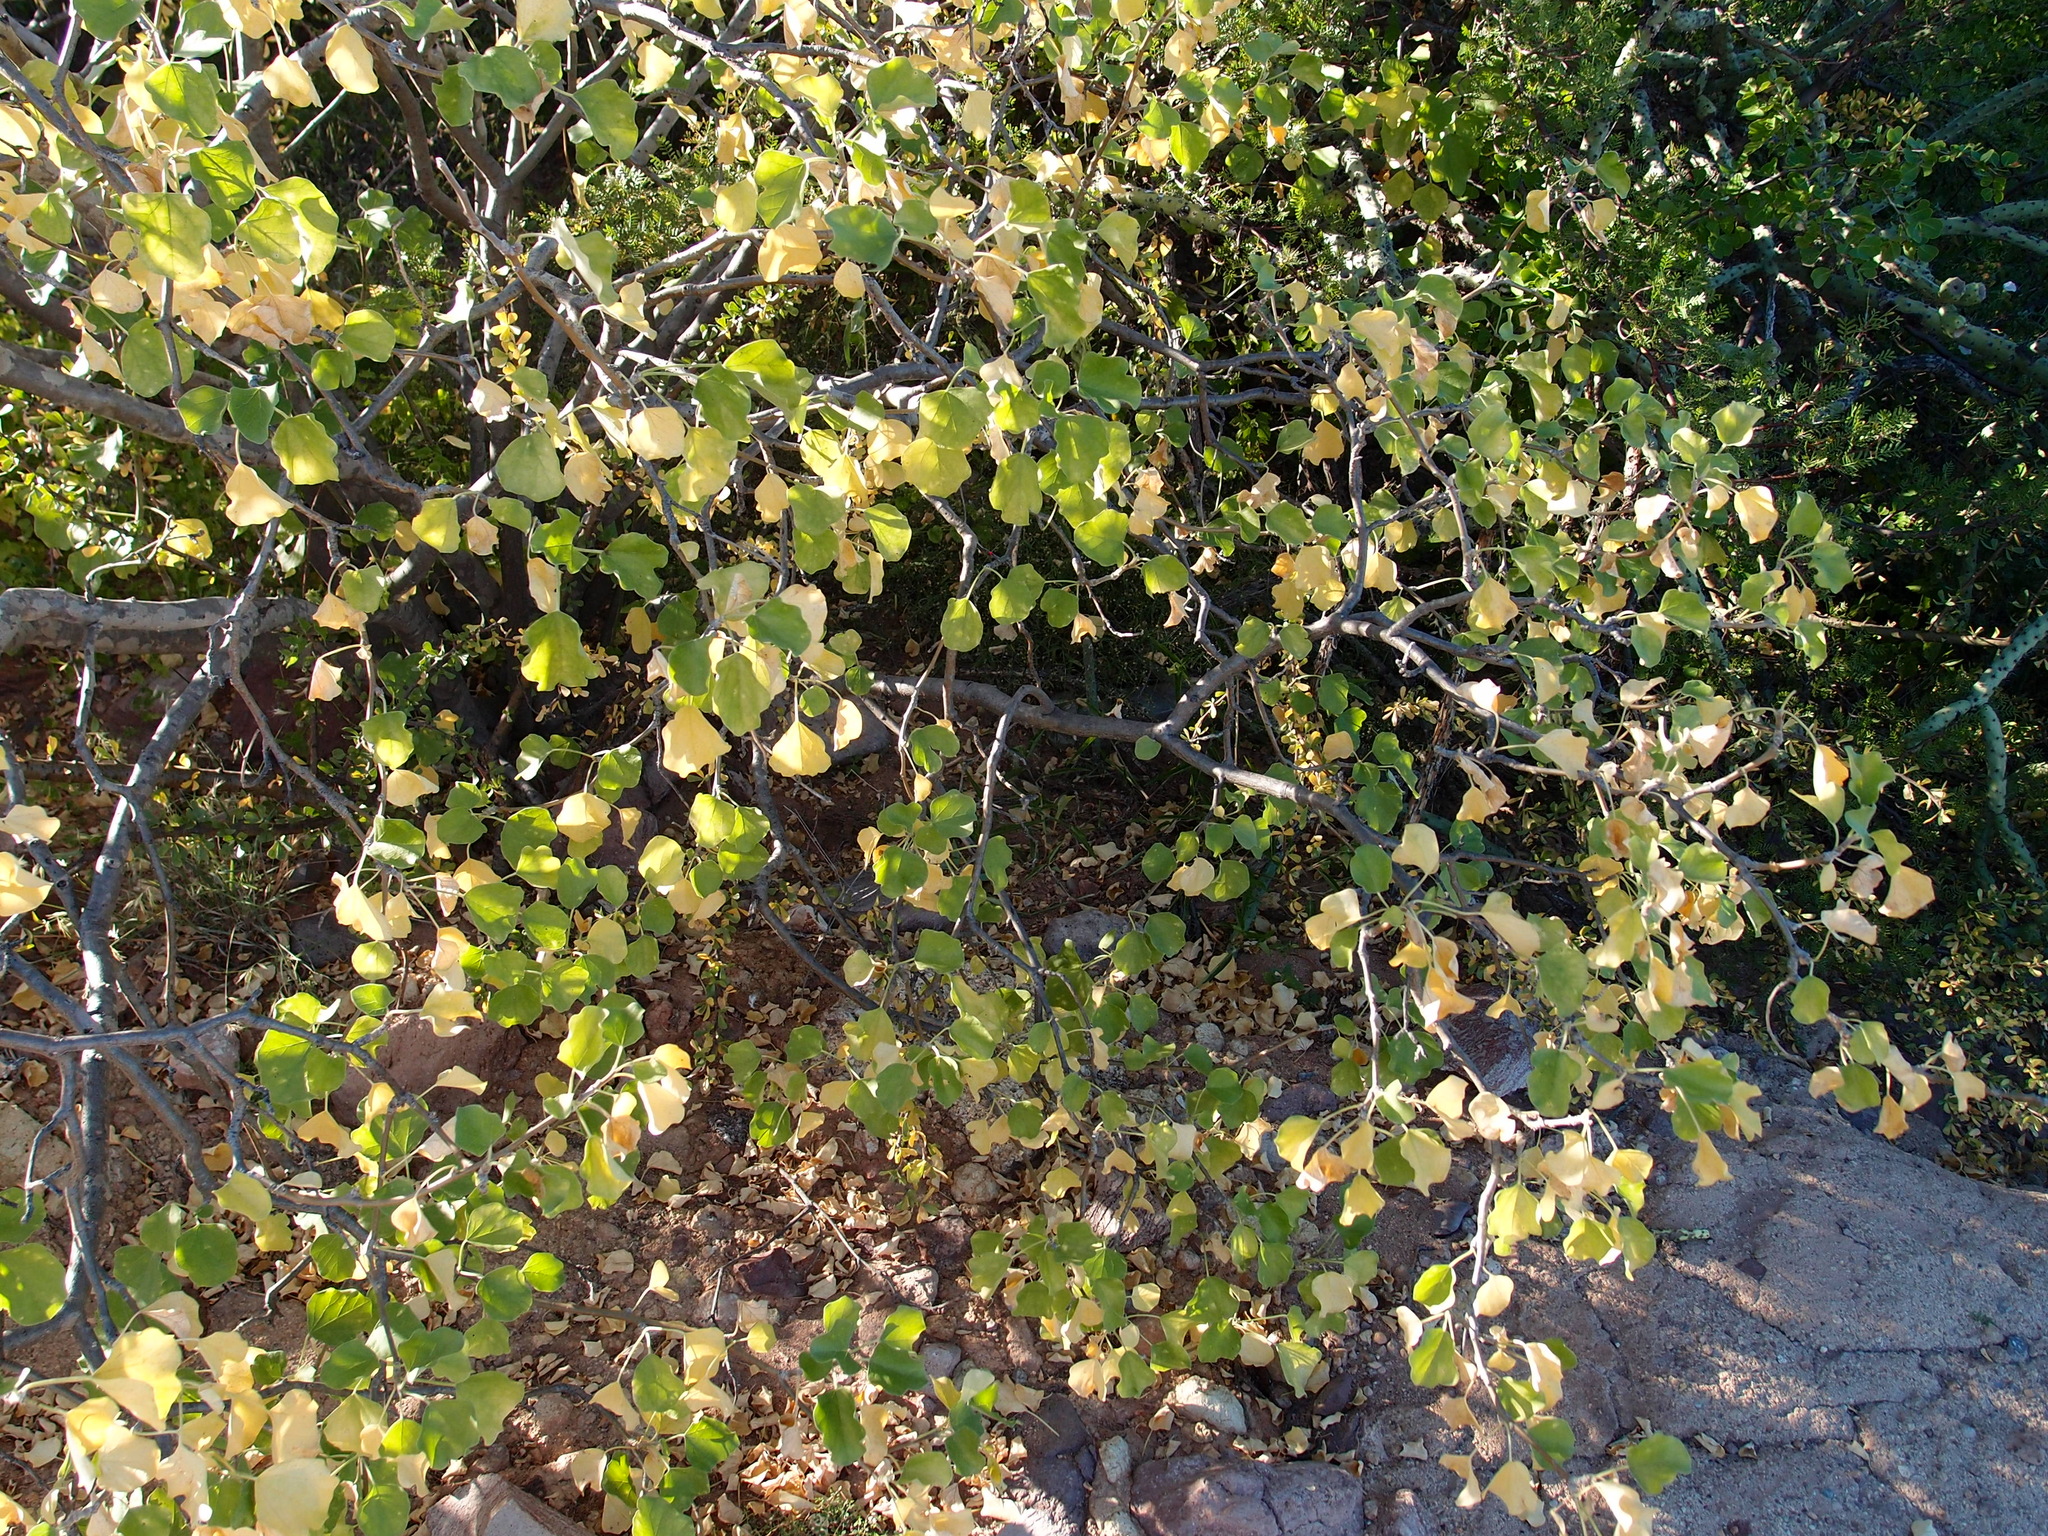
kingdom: Plantae
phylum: Tracheophyta
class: Magnoliopsida
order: Malpighiales
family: Euphorbiaceae
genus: Jatropha
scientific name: Jatropha cinerea
